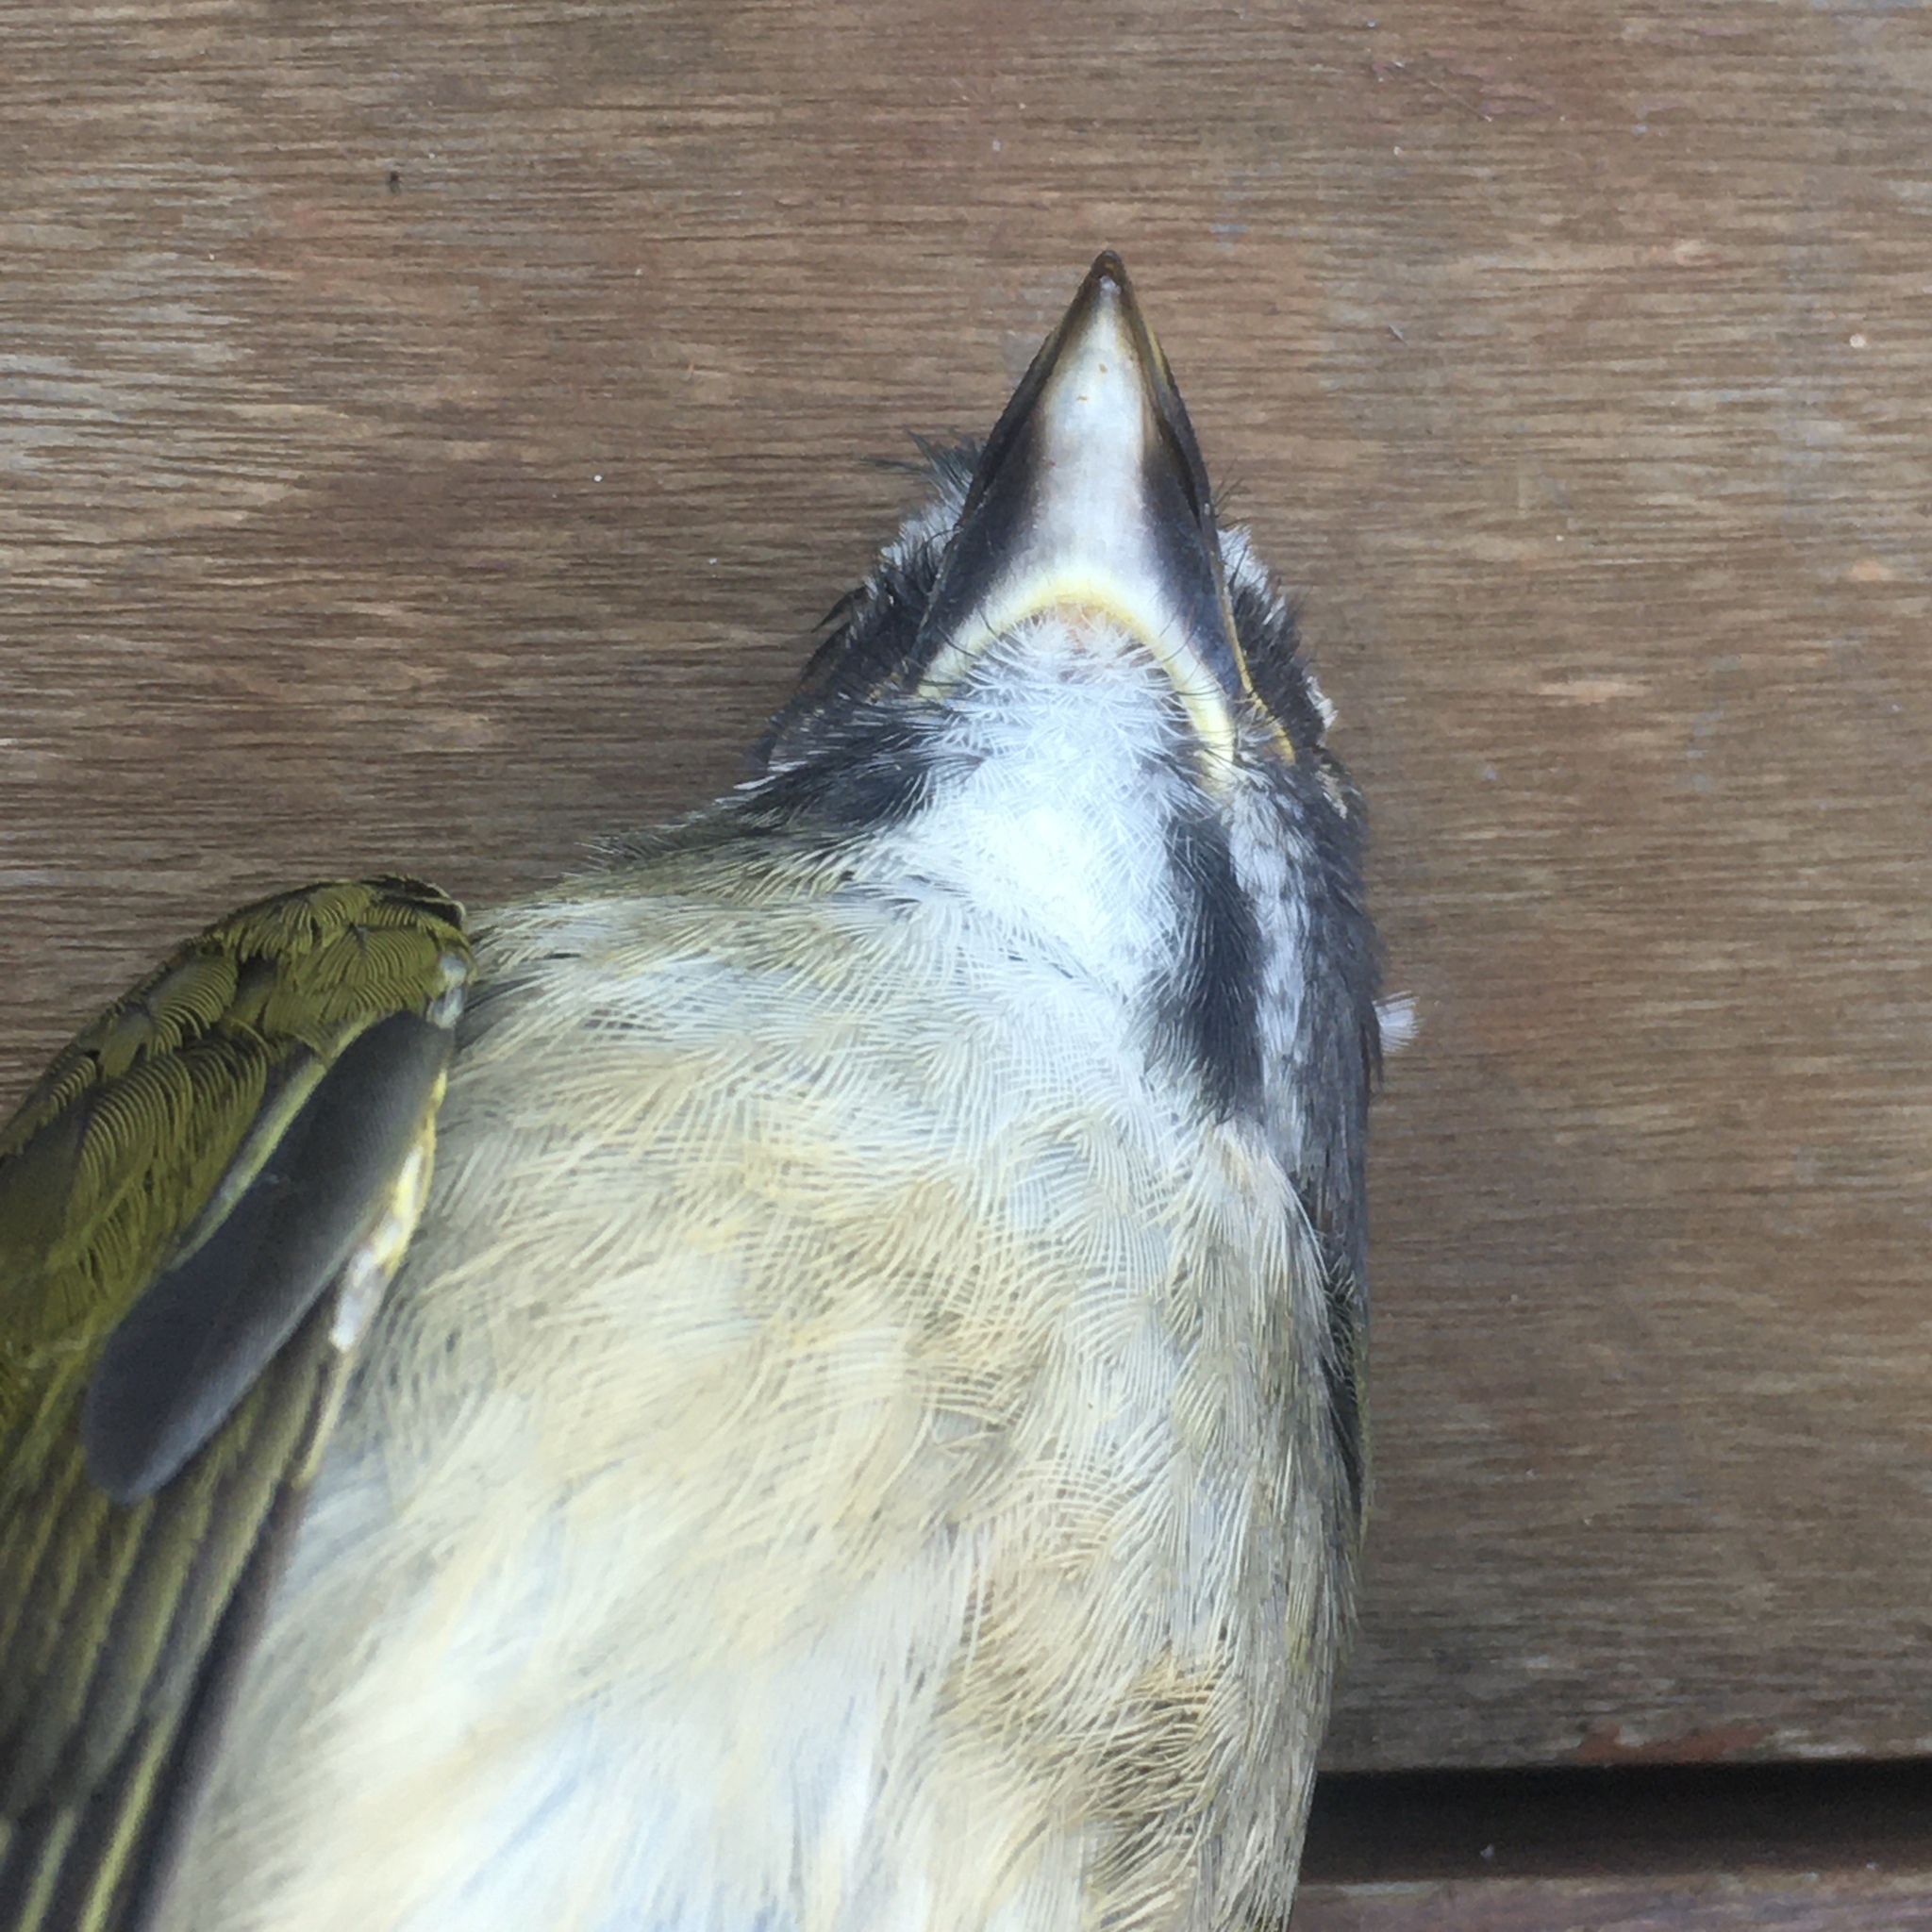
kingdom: Animalia
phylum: Chordata
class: Aves
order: Passeriformes
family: Thraupidae
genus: Saltator
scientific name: Saltator similis
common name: Green-winged saltator
